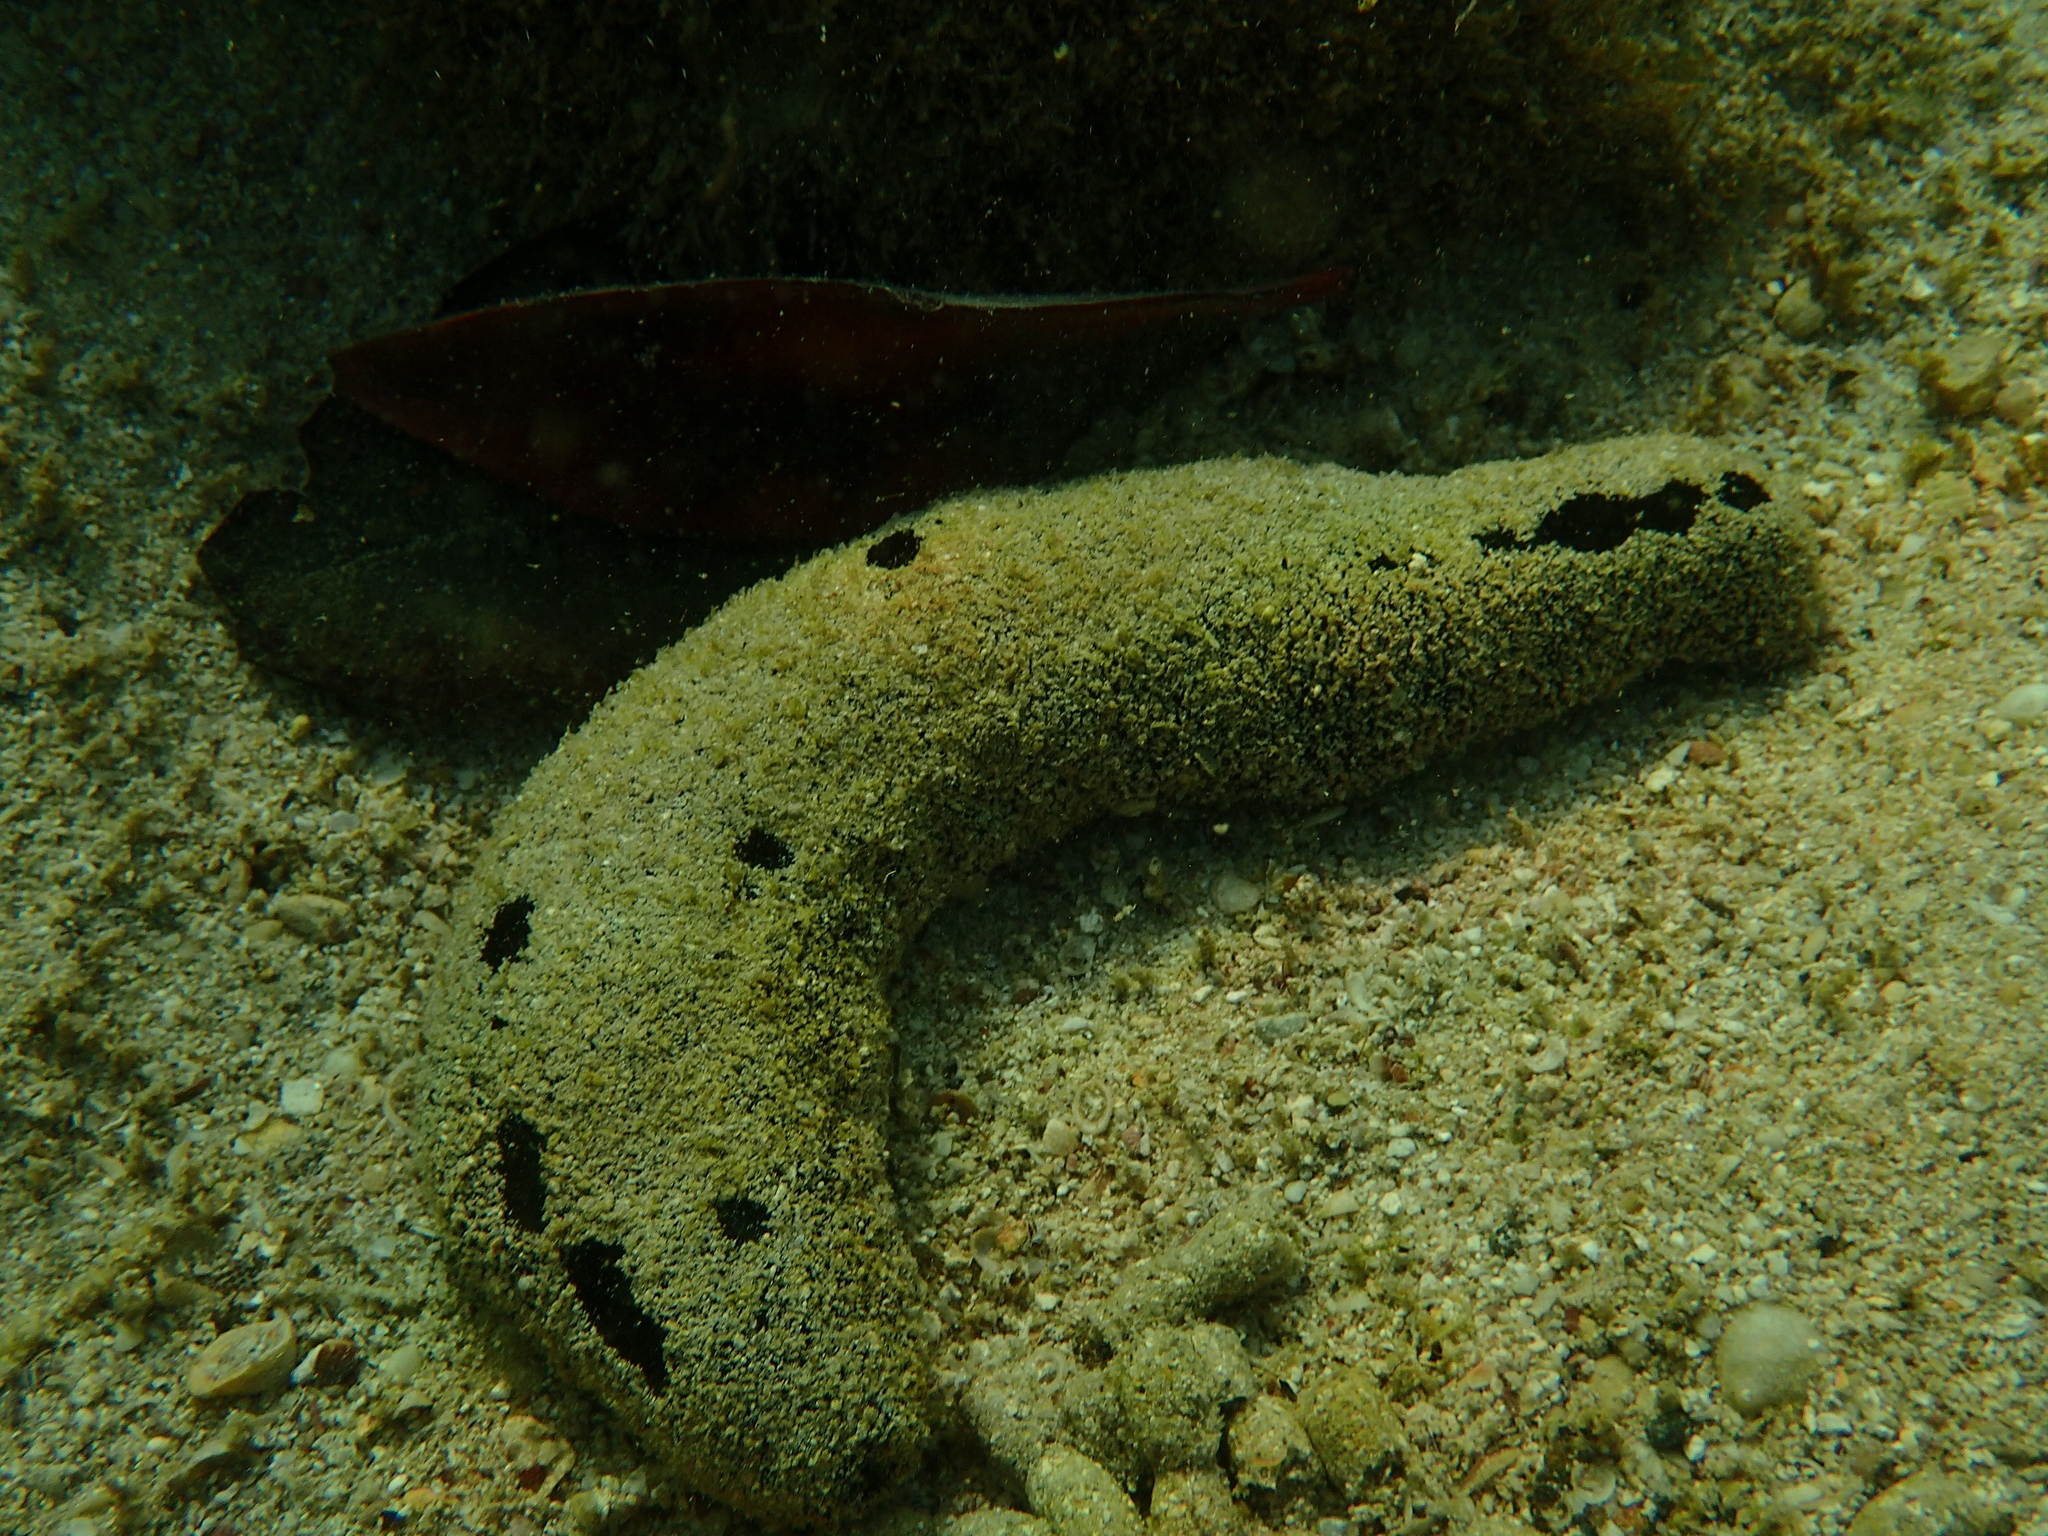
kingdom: Animalia
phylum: Echinodermata
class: Holothuroidea
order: Holothuriida
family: Holothuriidae
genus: Holothuria
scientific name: Holothuria atra
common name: Lollyfish
